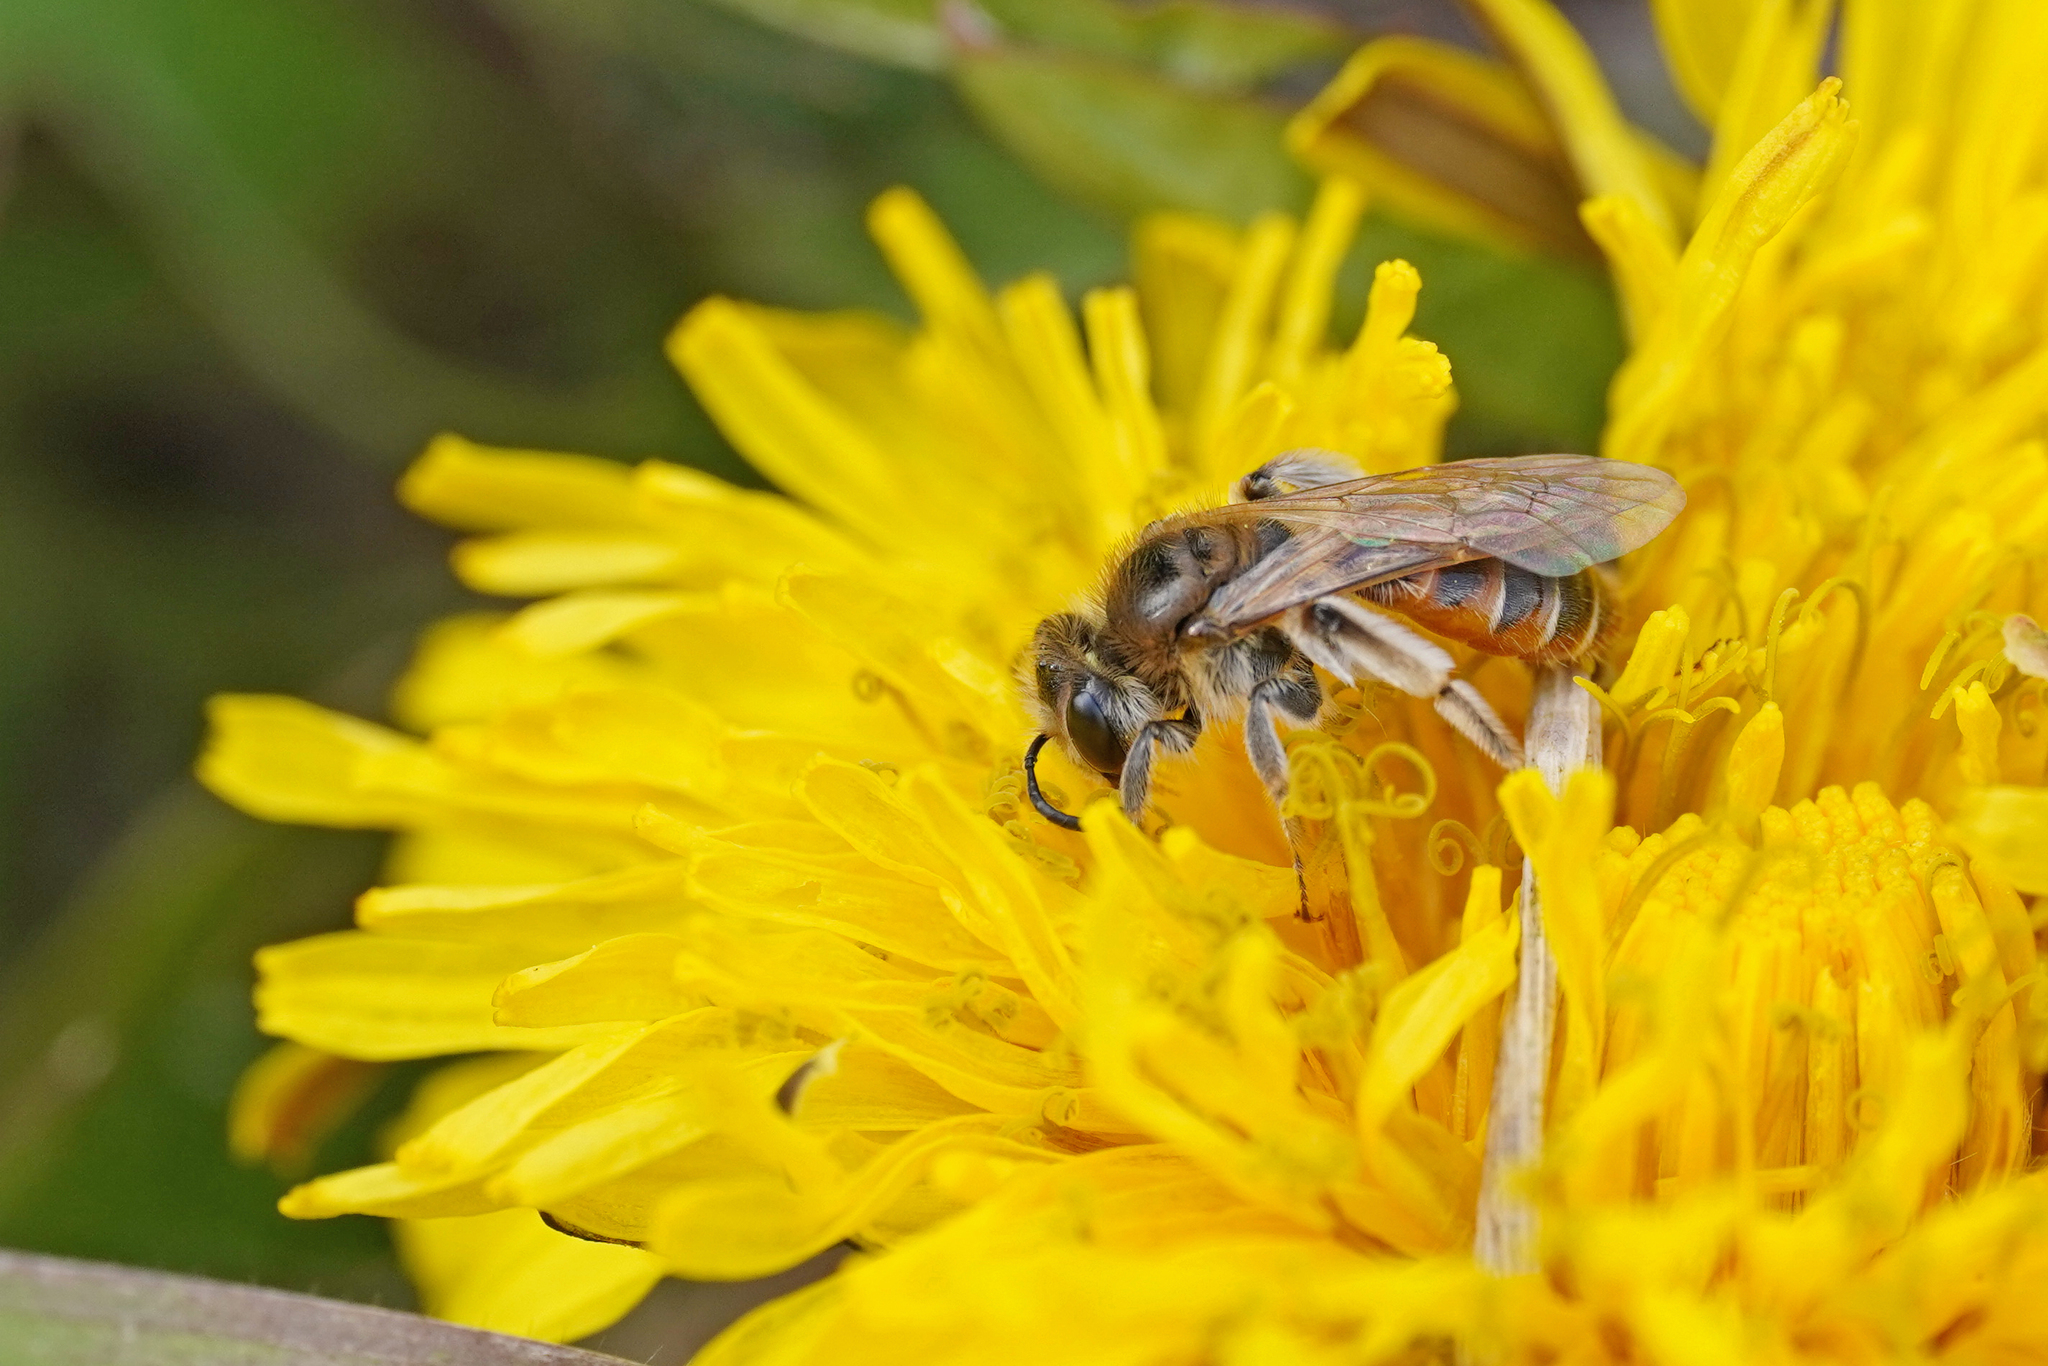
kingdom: Animalia
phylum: Arthropoda
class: Insecta
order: Hymenoptera
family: Andrenidae
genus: Andrena
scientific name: Andrena ventralis
